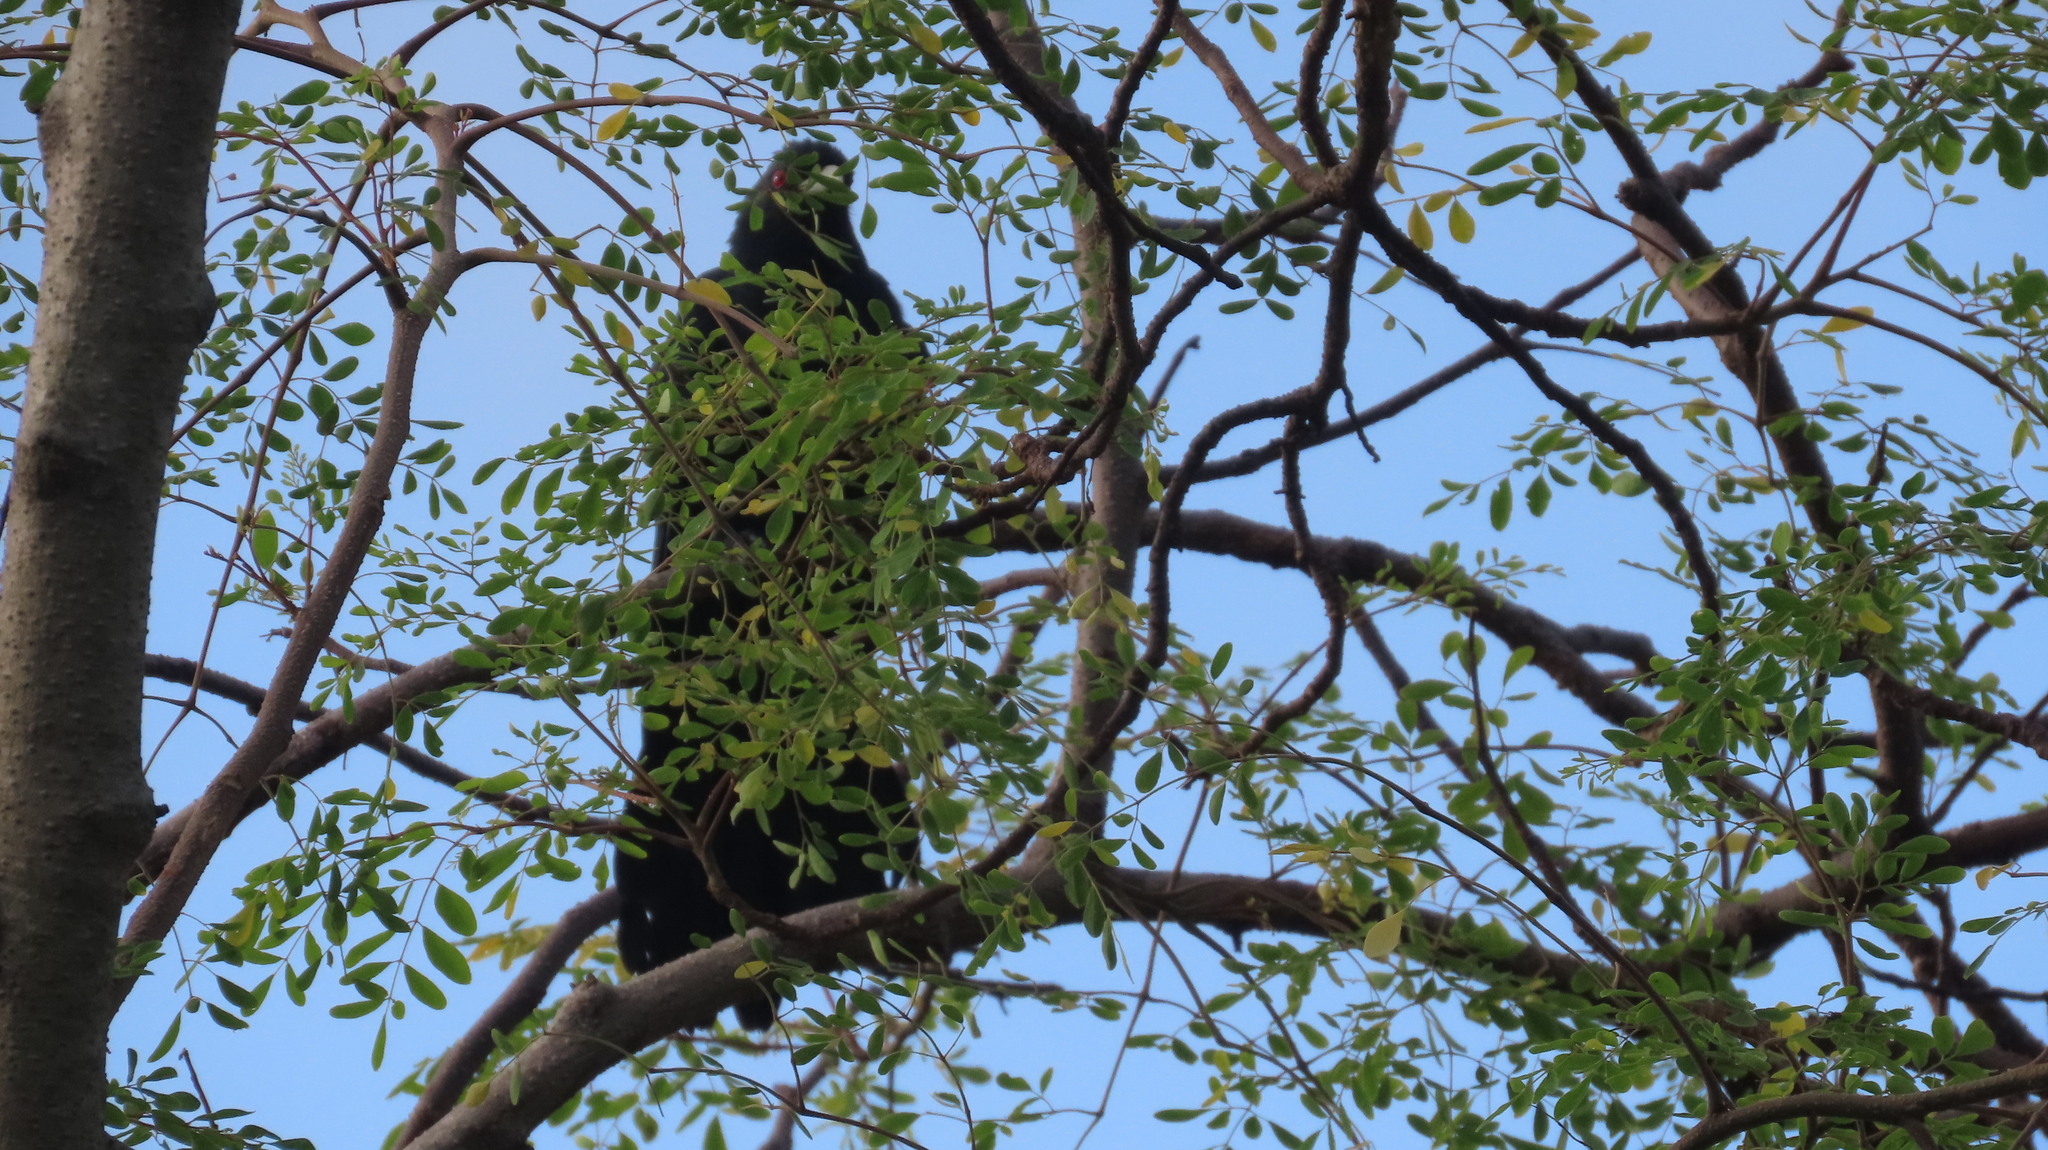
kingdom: Animalia
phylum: Chordata
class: Aves
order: Cuculiformes
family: Cuculidae
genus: Eudynamys
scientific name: Eudynamys scolopaceus
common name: Asian koel
